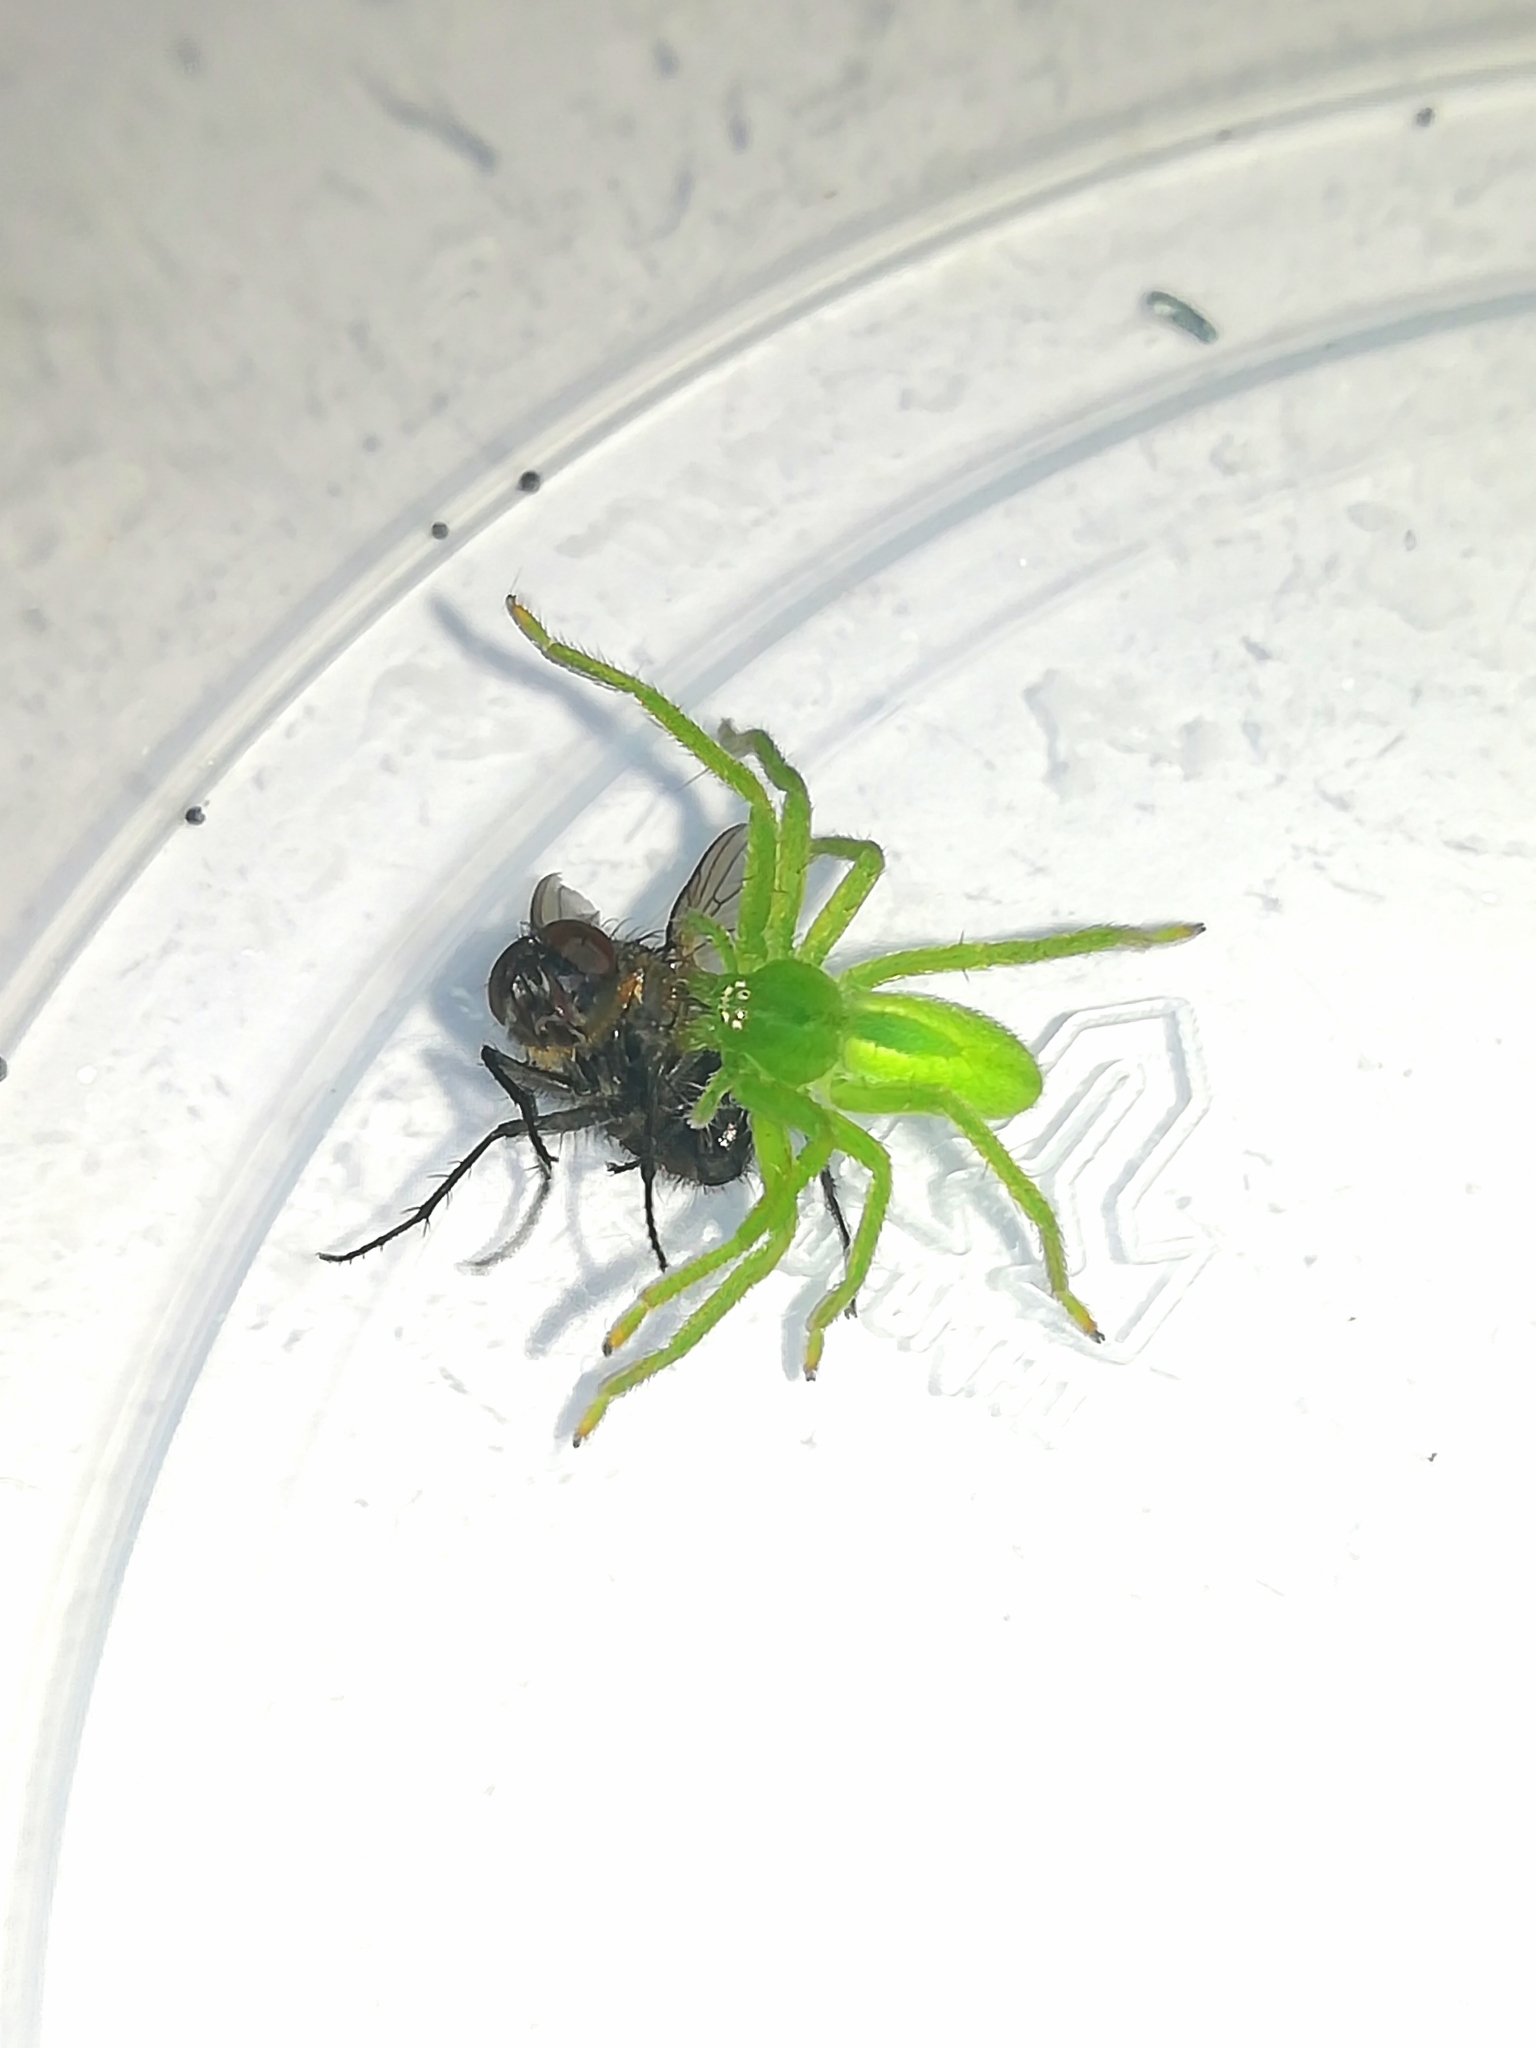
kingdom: Animalia
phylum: Arthropoda
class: Arachnida
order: Araneae
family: Sparassidae
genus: Micrommata
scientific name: Micrommata virescens
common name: Green spider
